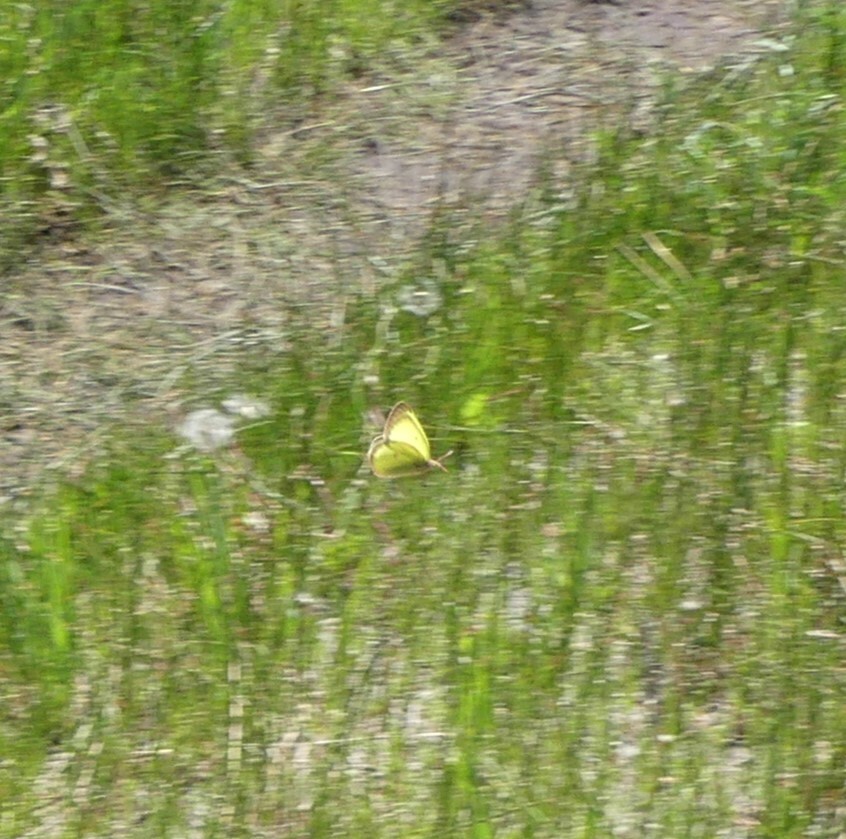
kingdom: Animalia
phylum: Arthropoda
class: Insecta
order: Lepidoptera
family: Pieridae
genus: Colias
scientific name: Colias philodice
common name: Clouded sulphur
